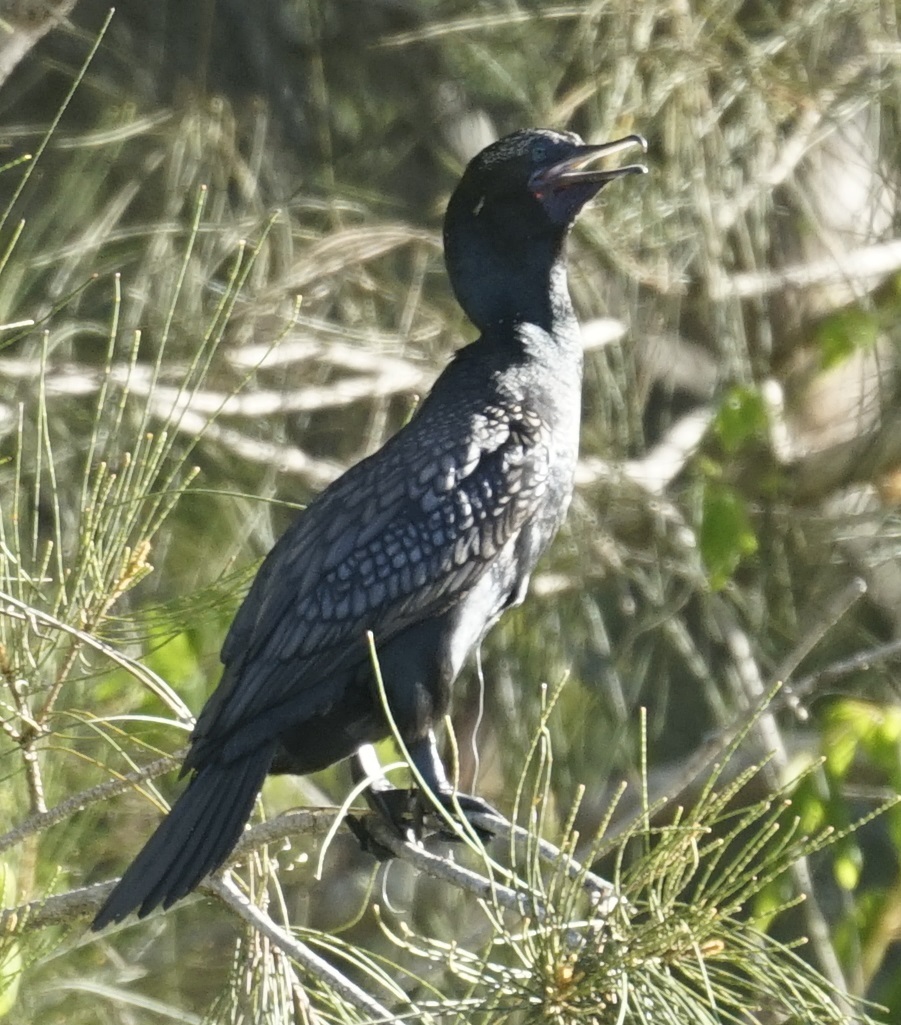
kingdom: Animalia
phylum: Chordata
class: Aves
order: Suliformes
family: Phalacrocoracidae
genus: Phalacrocorax
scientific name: Phalacrocorax sulcirostris
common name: Little black cormorant
